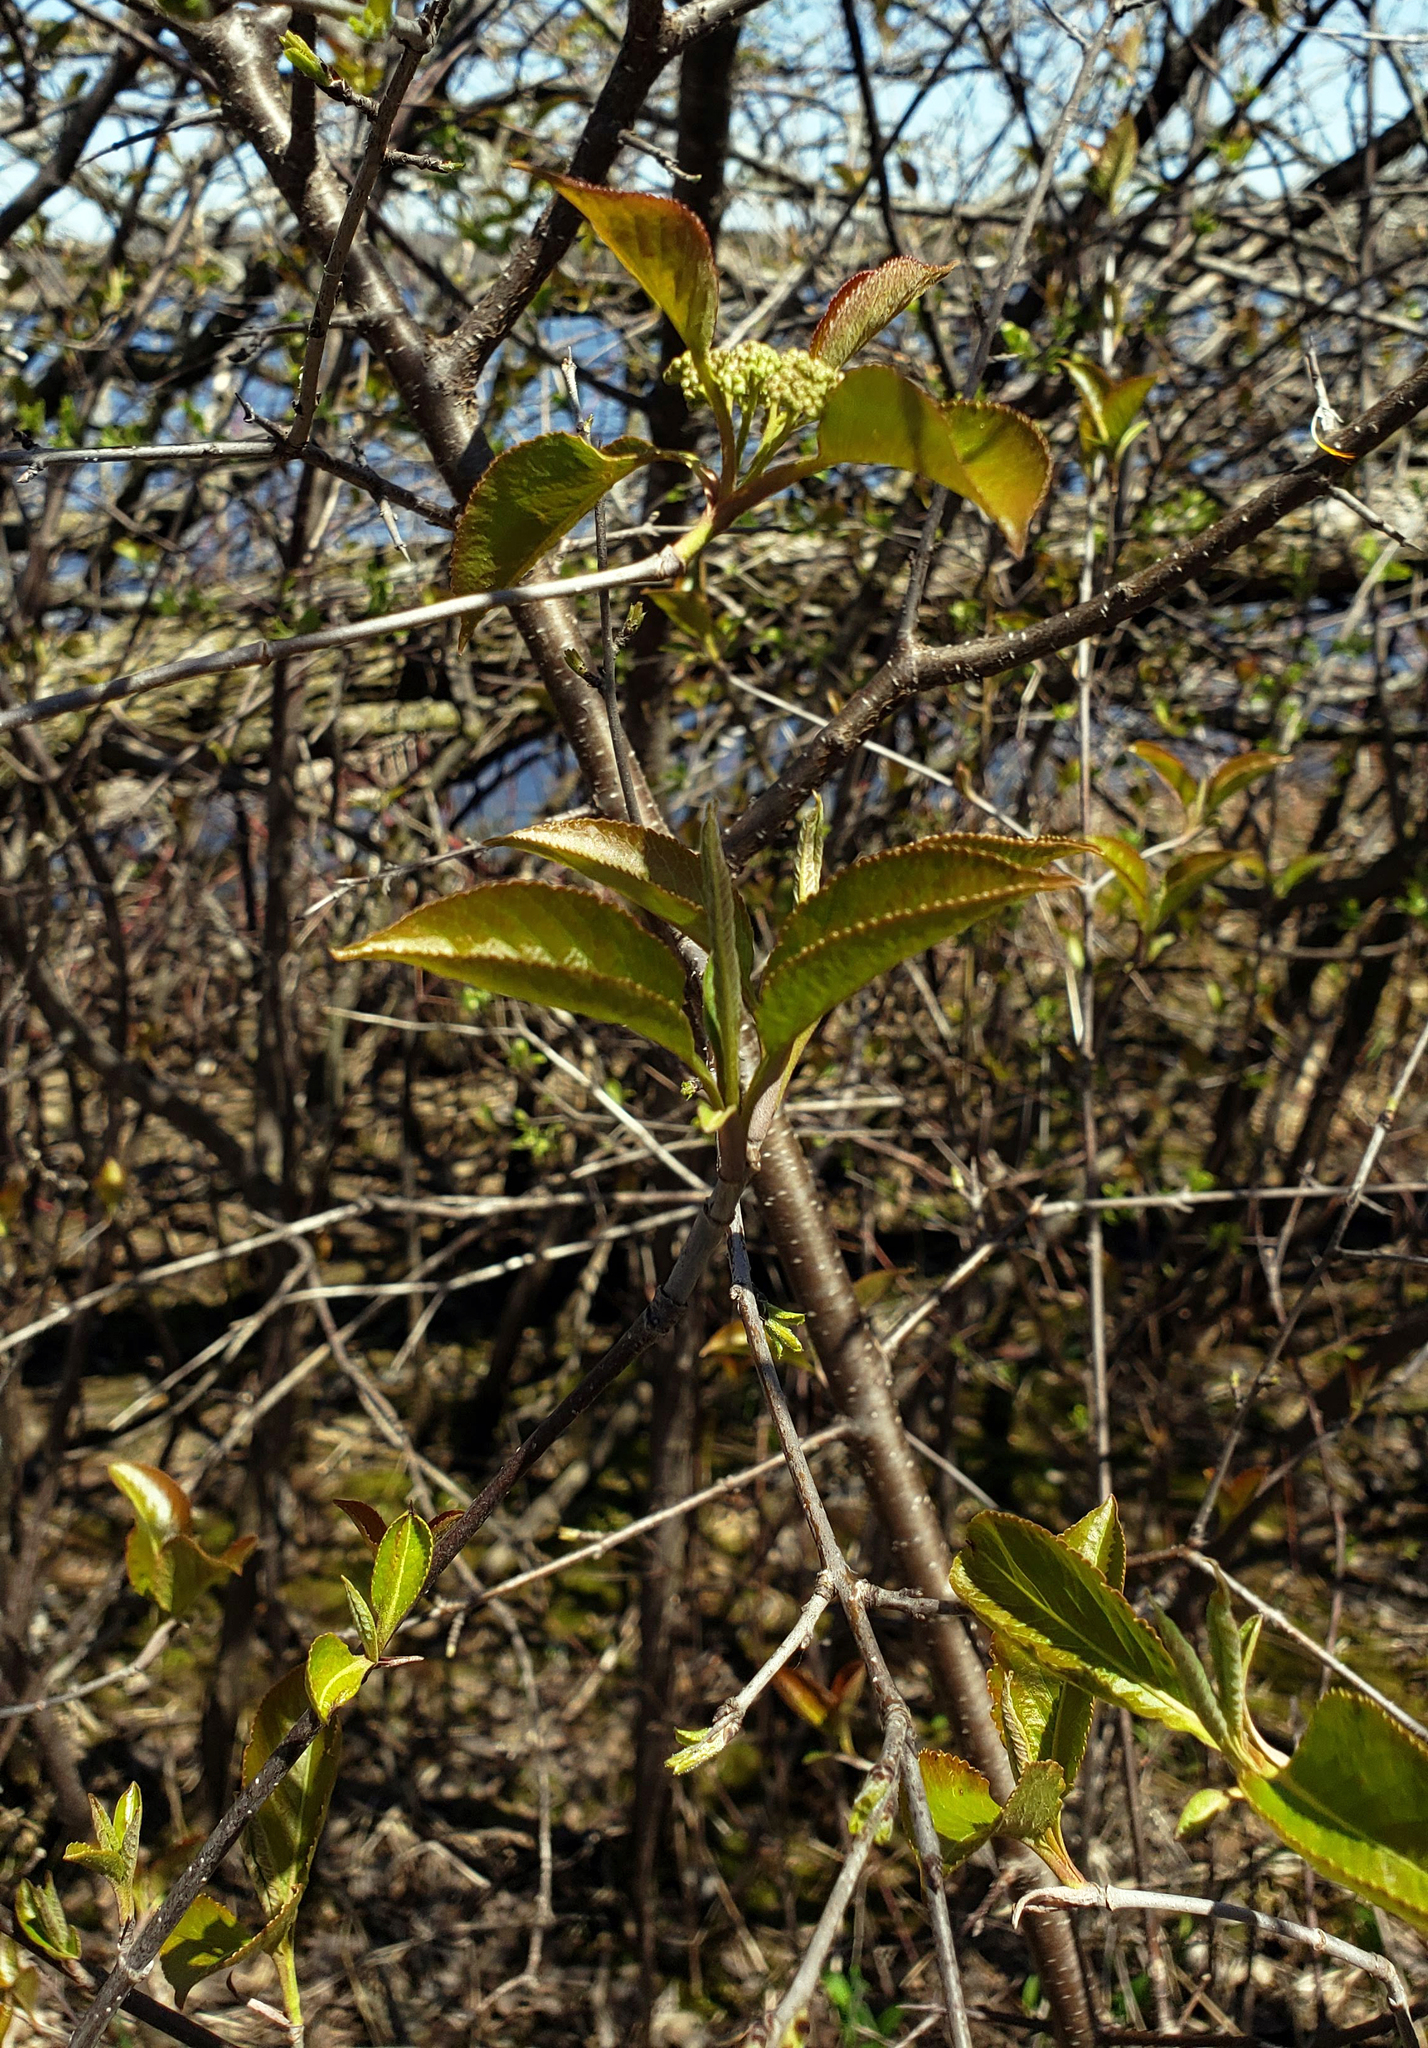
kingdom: Plantae
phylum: Tracheophyta
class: Magnoliopsida
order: Dipsacales
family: Viburnaceae
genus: Viburnum
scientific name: Viburnum lentago
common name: Black haw
